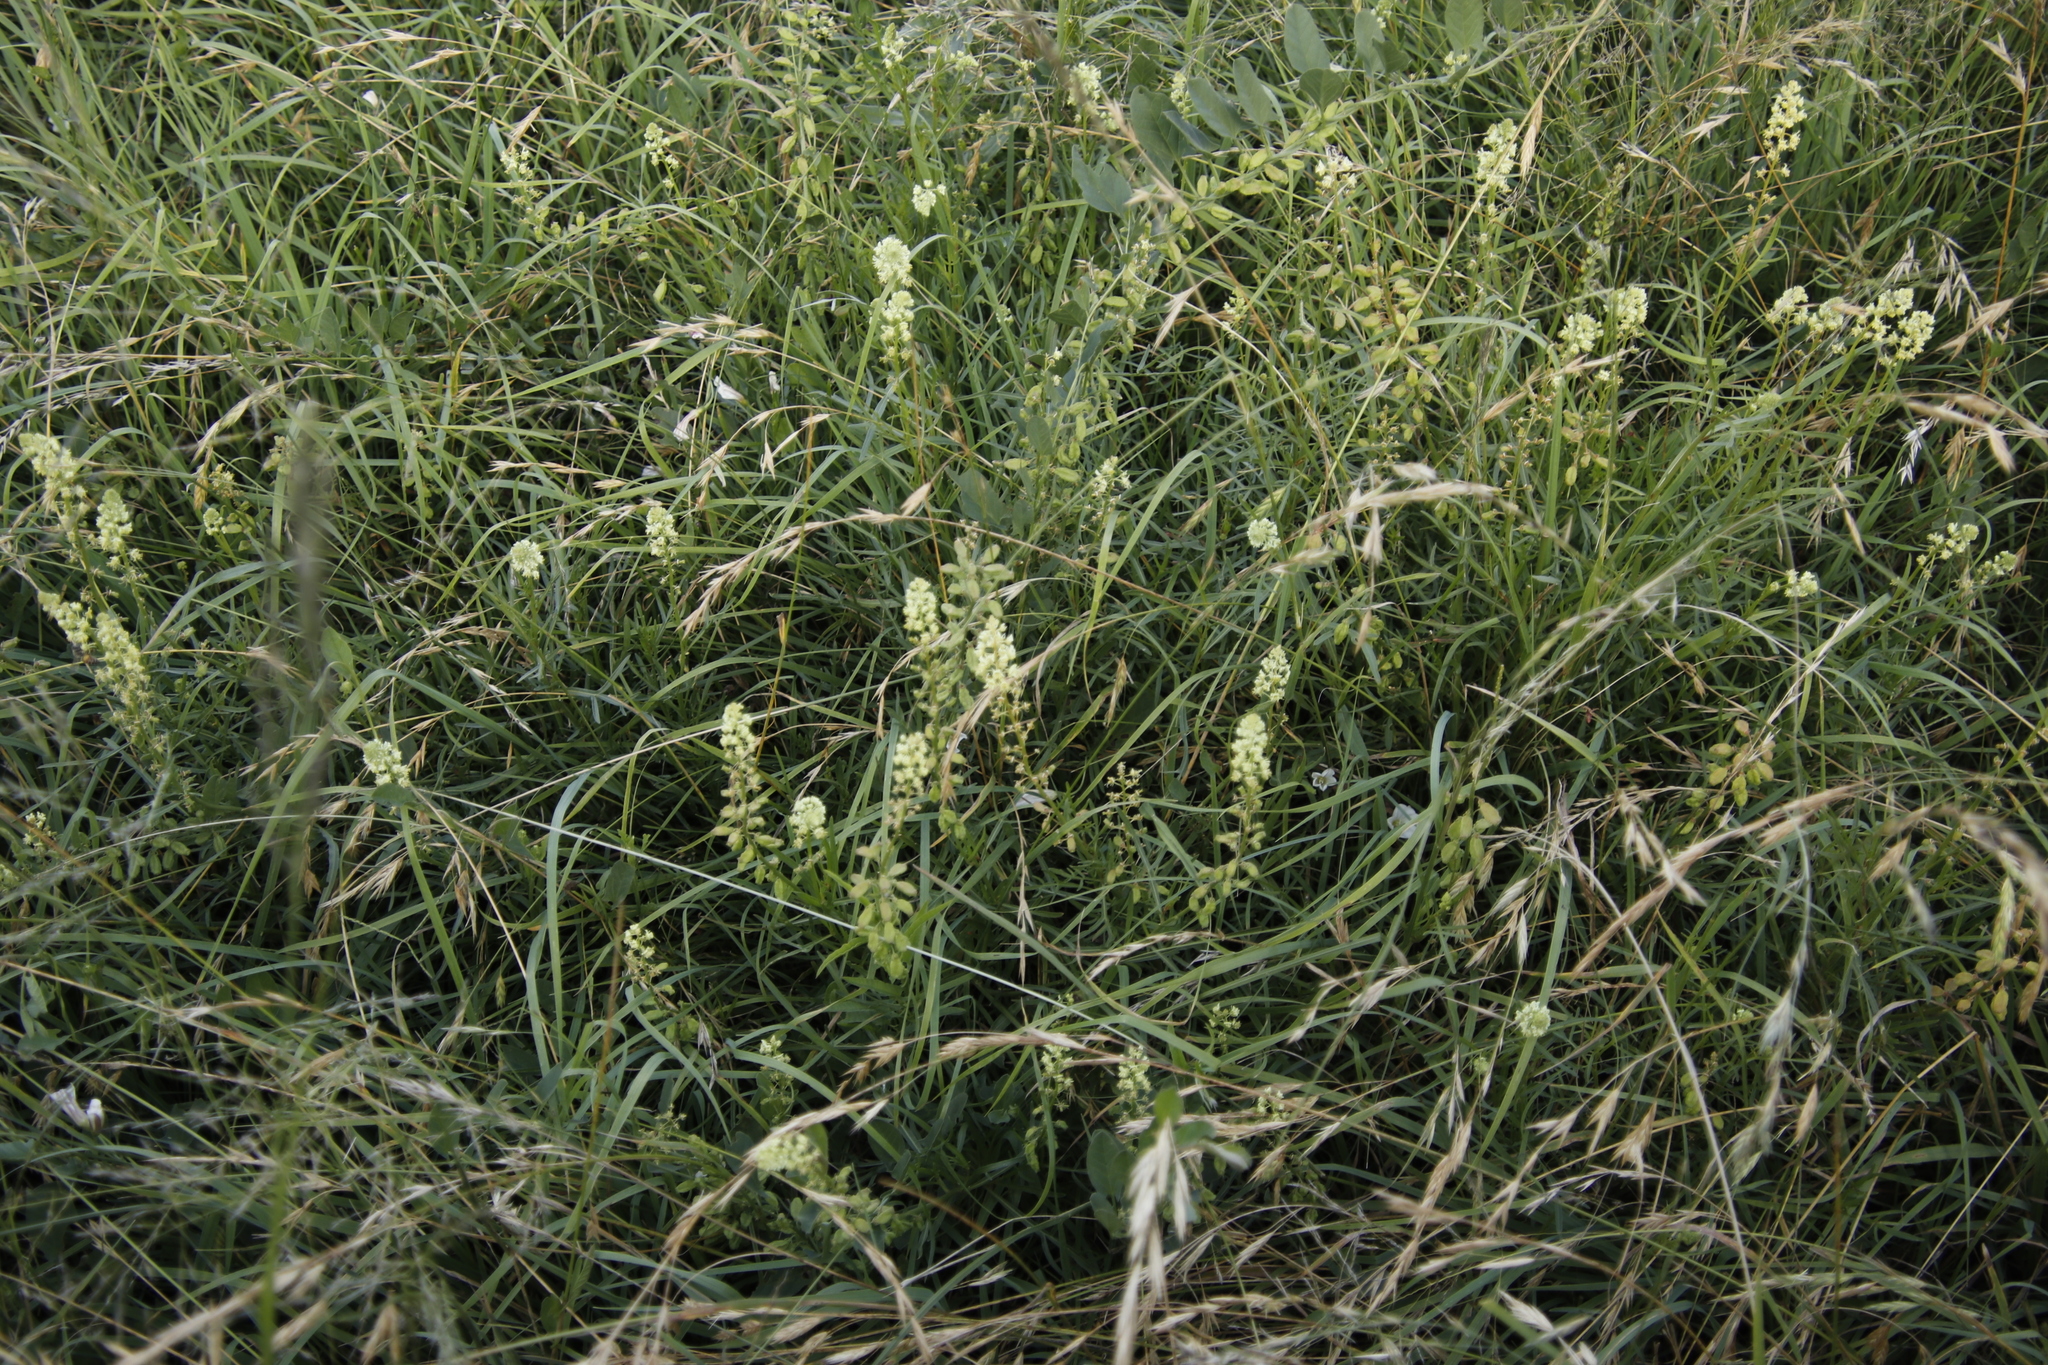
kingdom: Plantae
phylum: Tracheophyta
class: Magnoliopsida
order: Brassicales
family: Resedaceae
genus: Reseda
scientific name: Reseda lutea
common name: Wild mignonette
